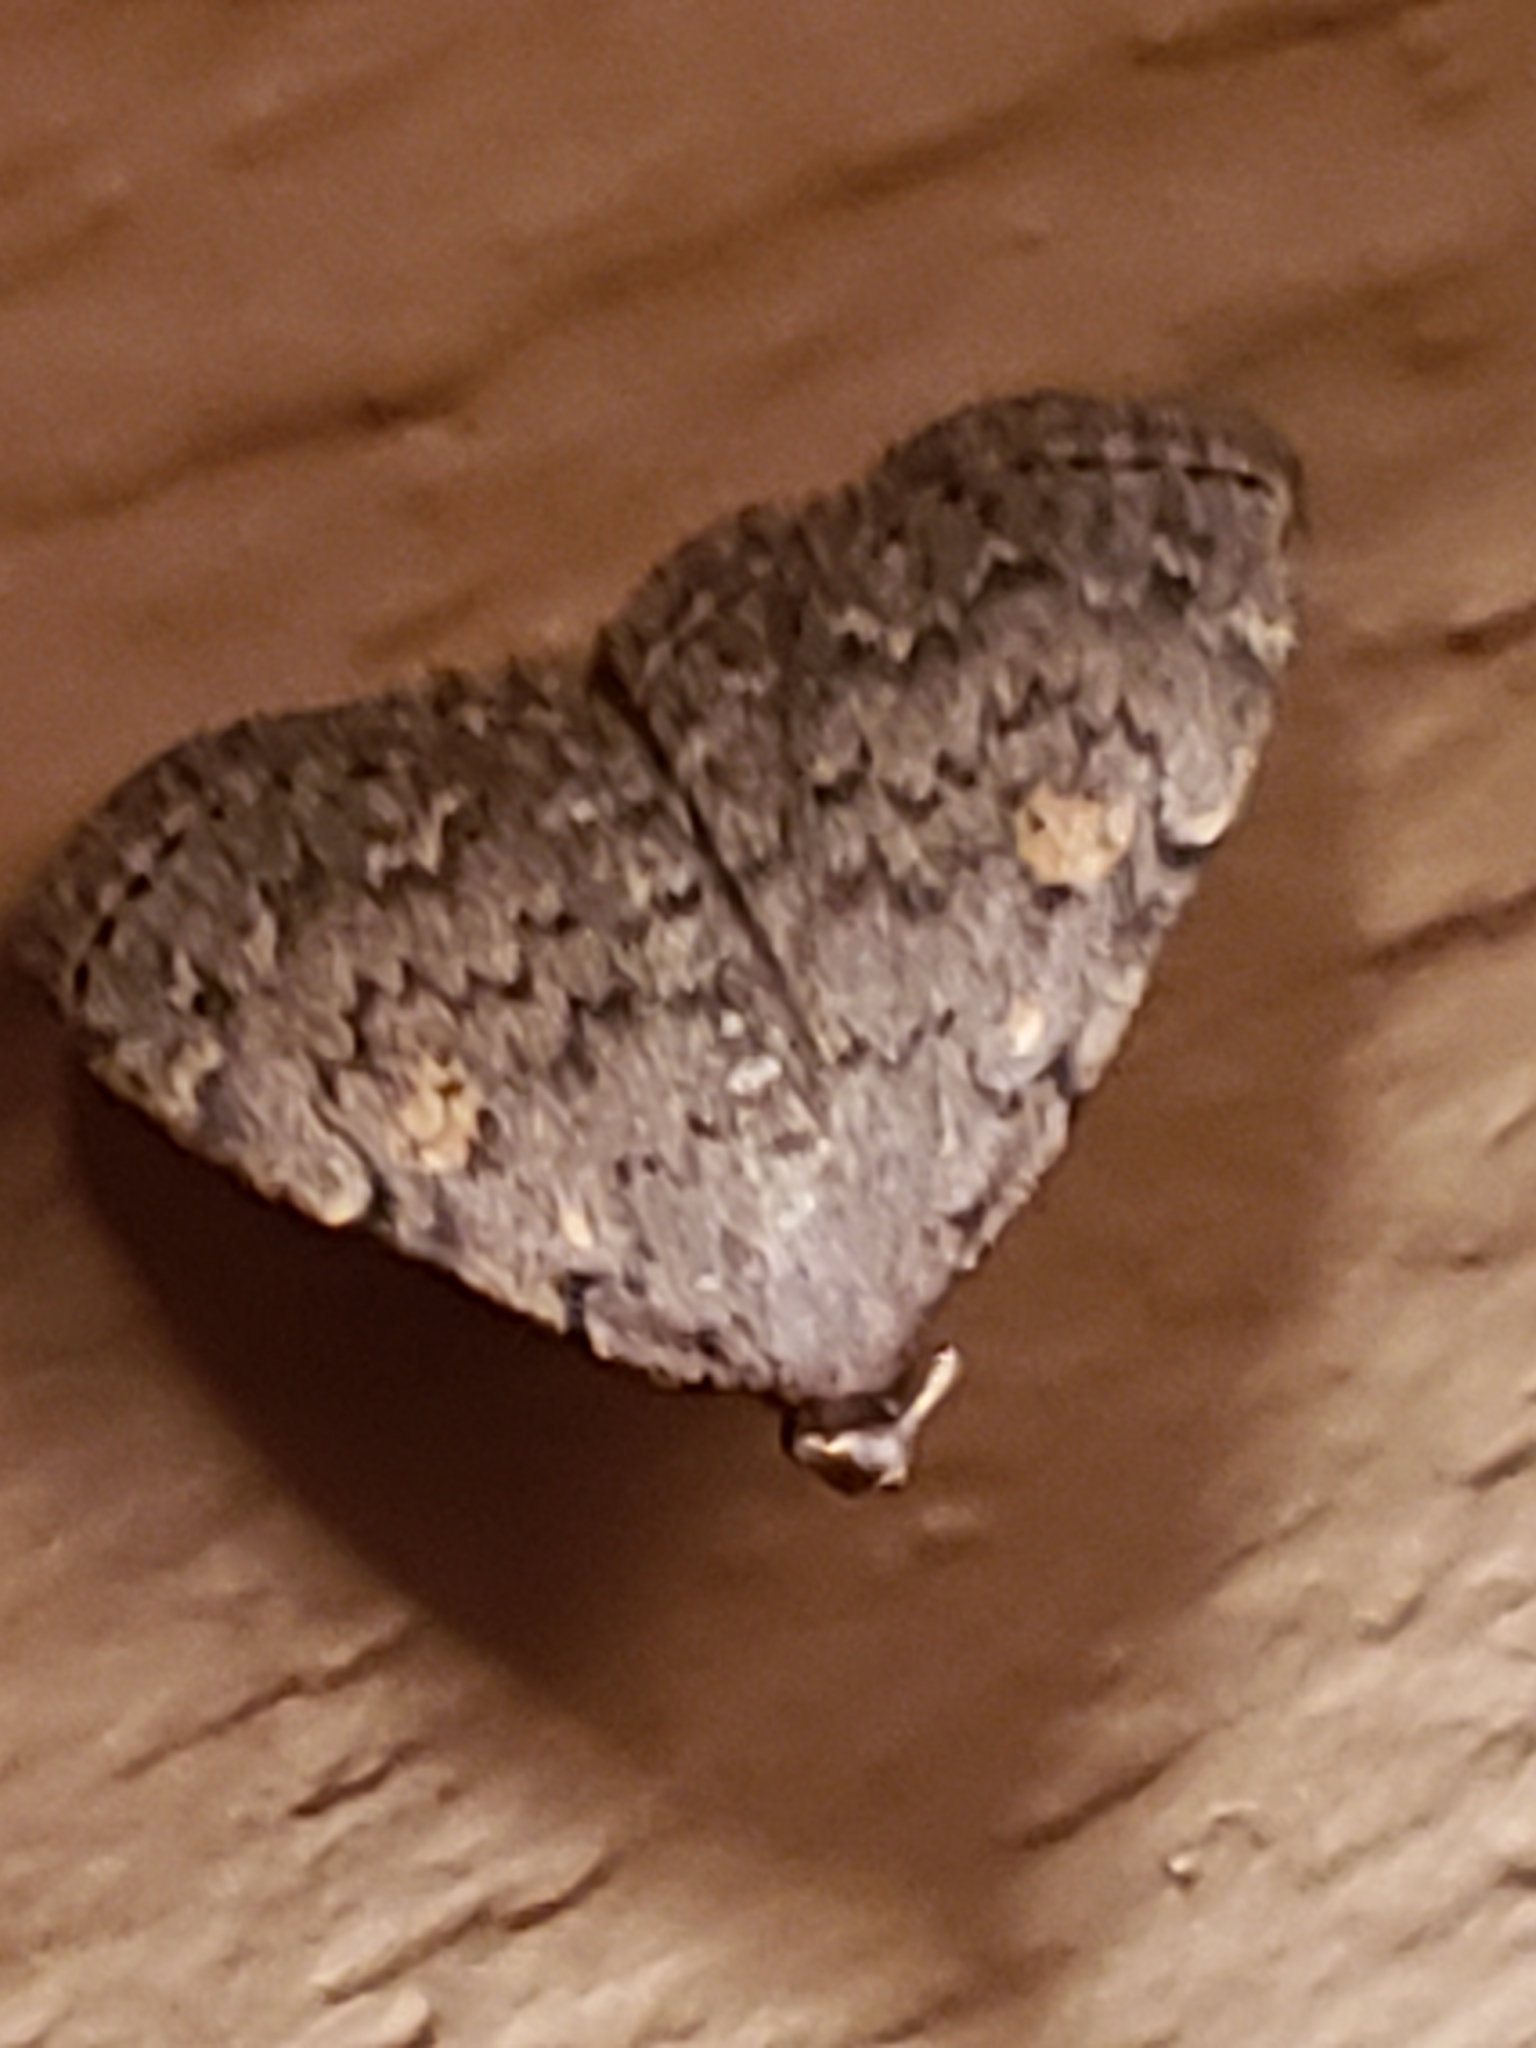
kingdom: Animalia
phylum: Arthropoda
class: Insecta
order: Lepidoptera
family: Erebidae
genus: Idia
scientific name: Idia aemula
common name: Common idia moth
